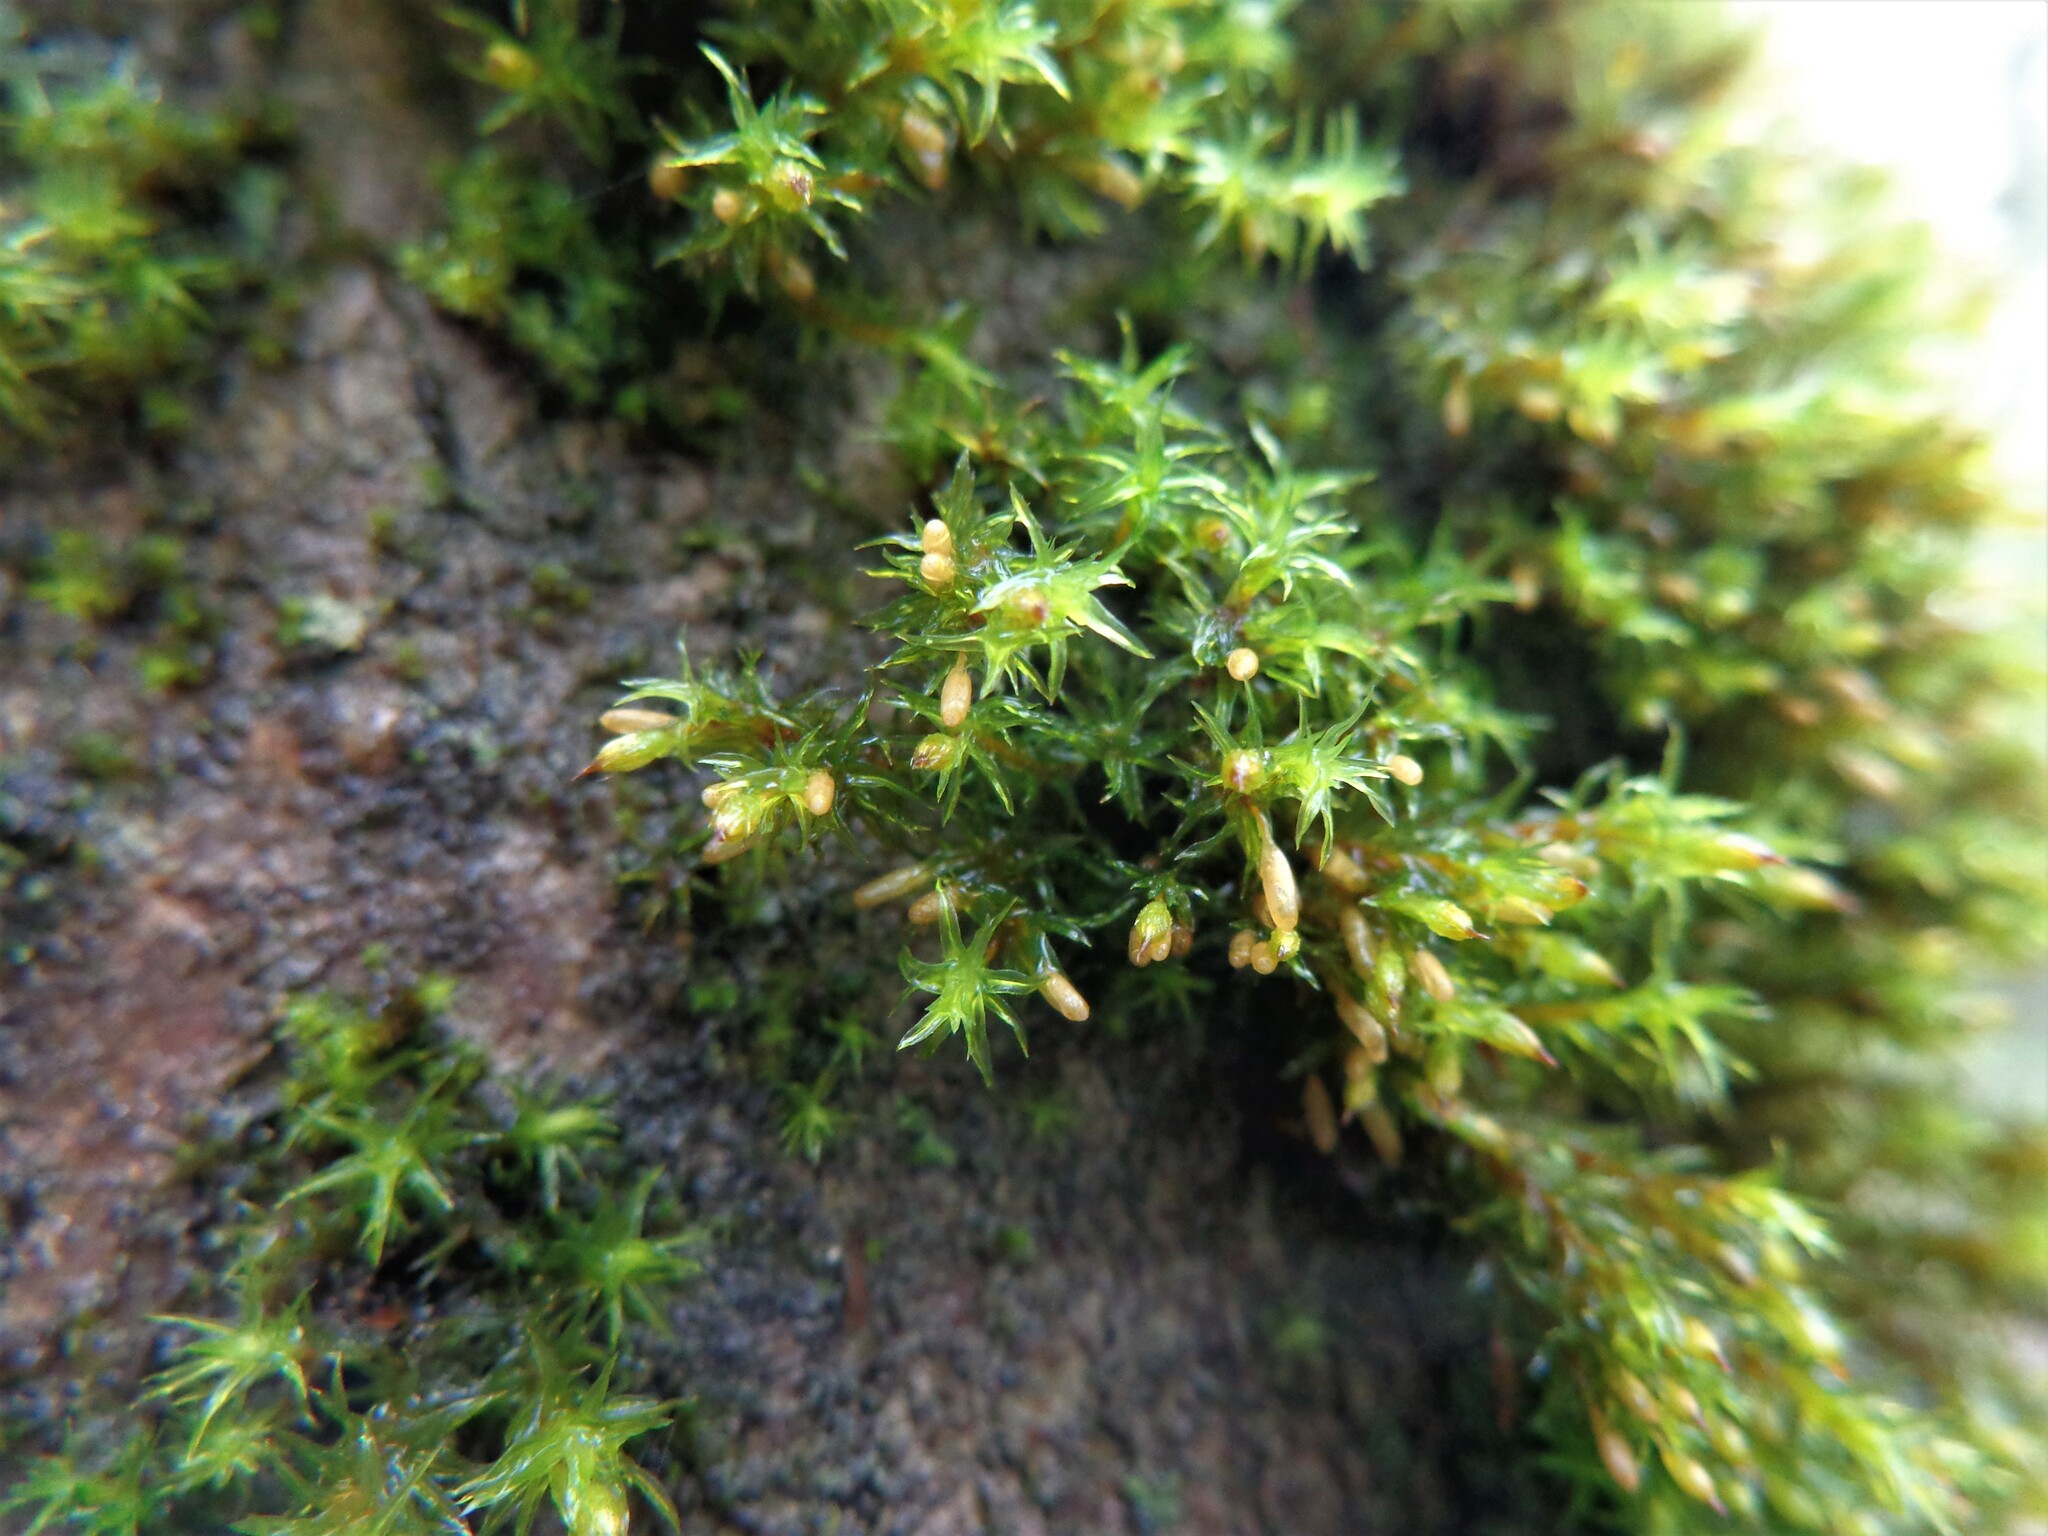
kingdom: Plantae
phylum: Bryophyta
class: Bryopsida
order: Orthotrichales
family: Orthotrichaceae
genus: Lewinskya
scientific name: Lewinskya speciosa
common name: Showy bristle moss
